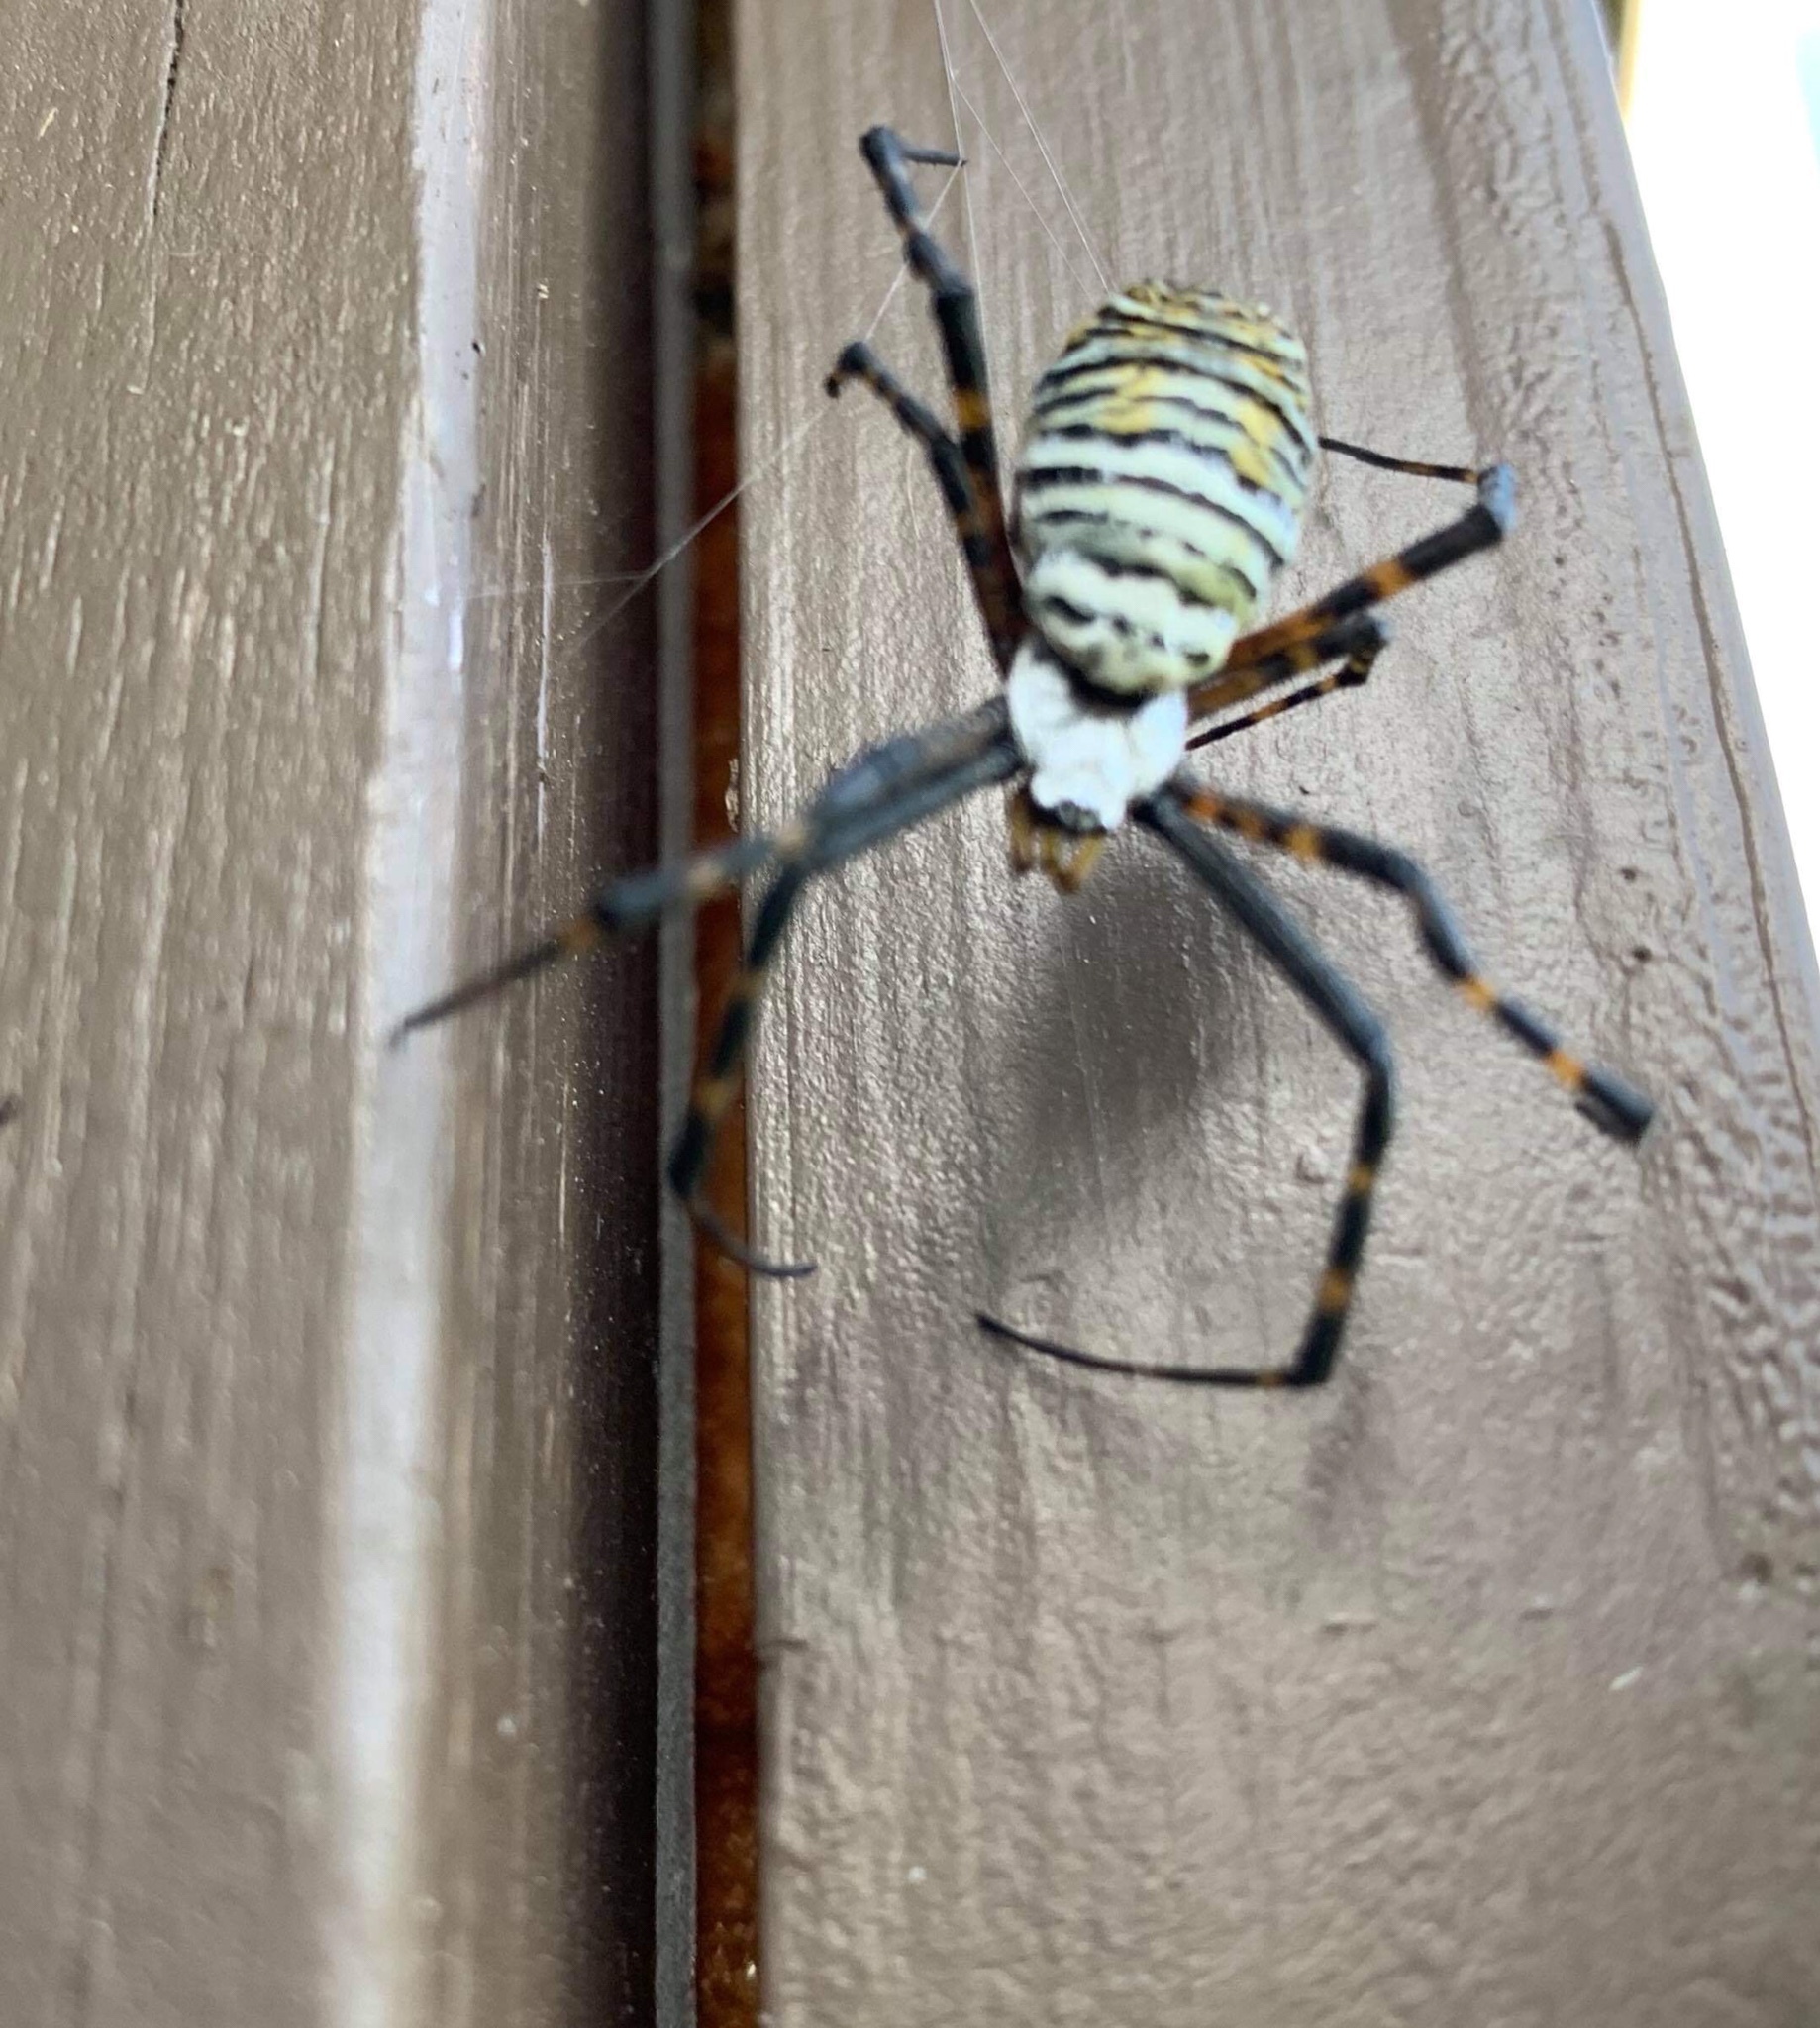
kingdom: Animalia
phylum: Arthropoda
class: Arachnida
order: Araneae
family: Araneidae
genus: Argiope
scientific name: Argiope trifasciata
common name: Banded garden spider
